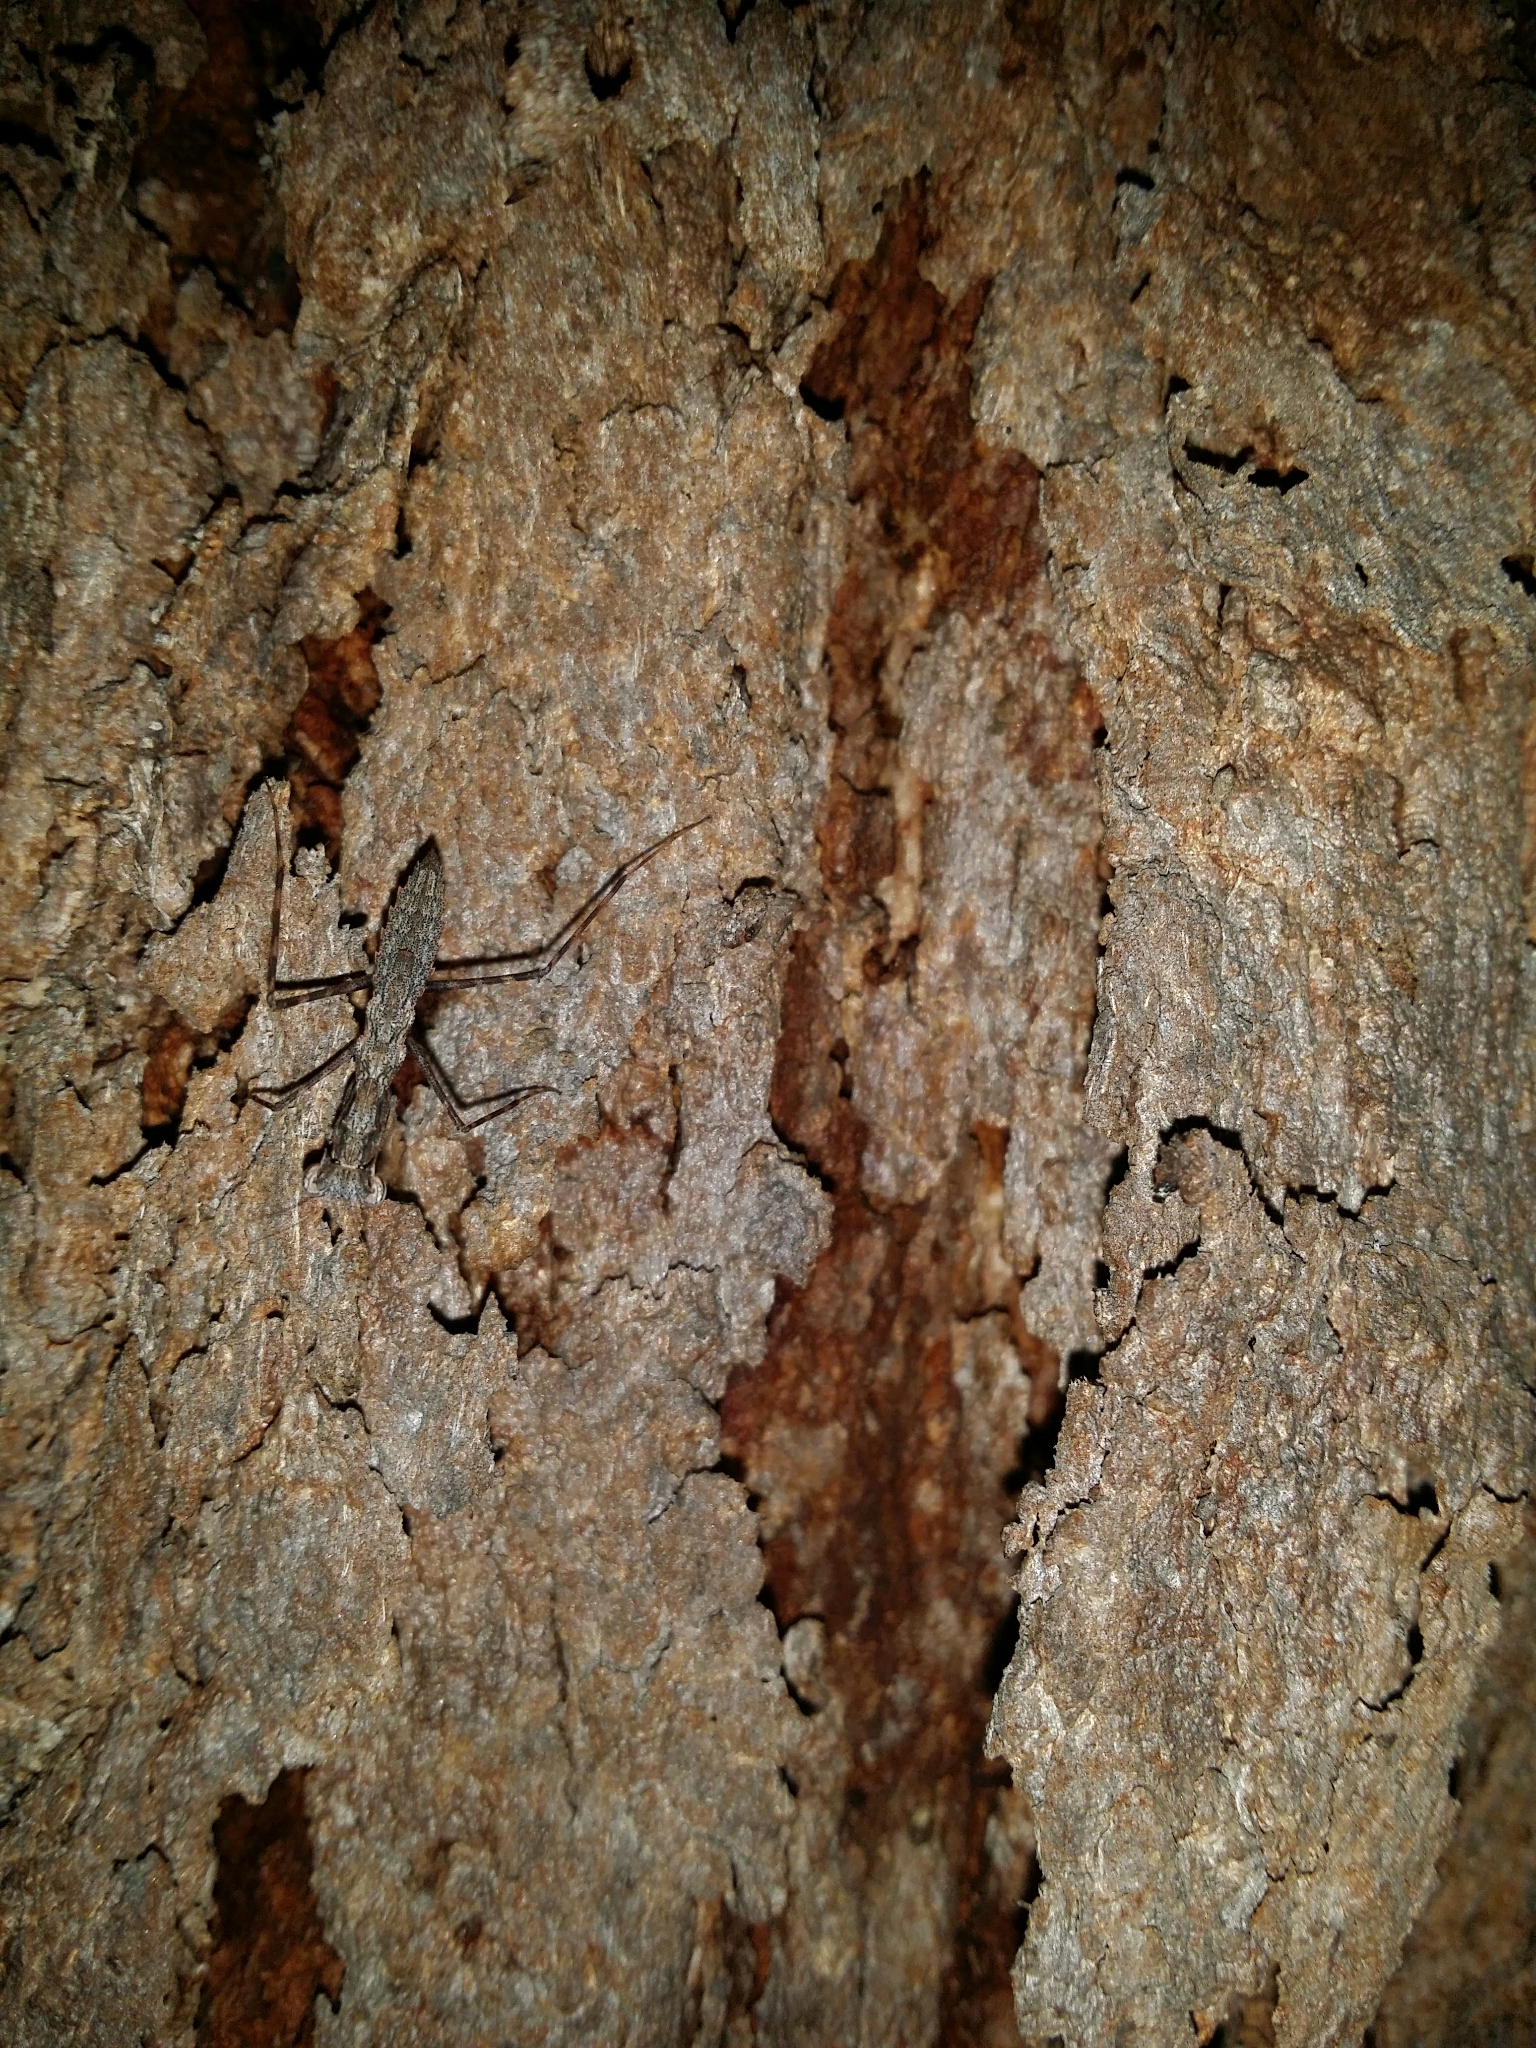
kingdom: Animalia
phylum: Arthropoda
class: Insecta
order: Mantodea
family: Nanomantidae
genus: Gyromantis
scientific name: Gyromantis kraussii
